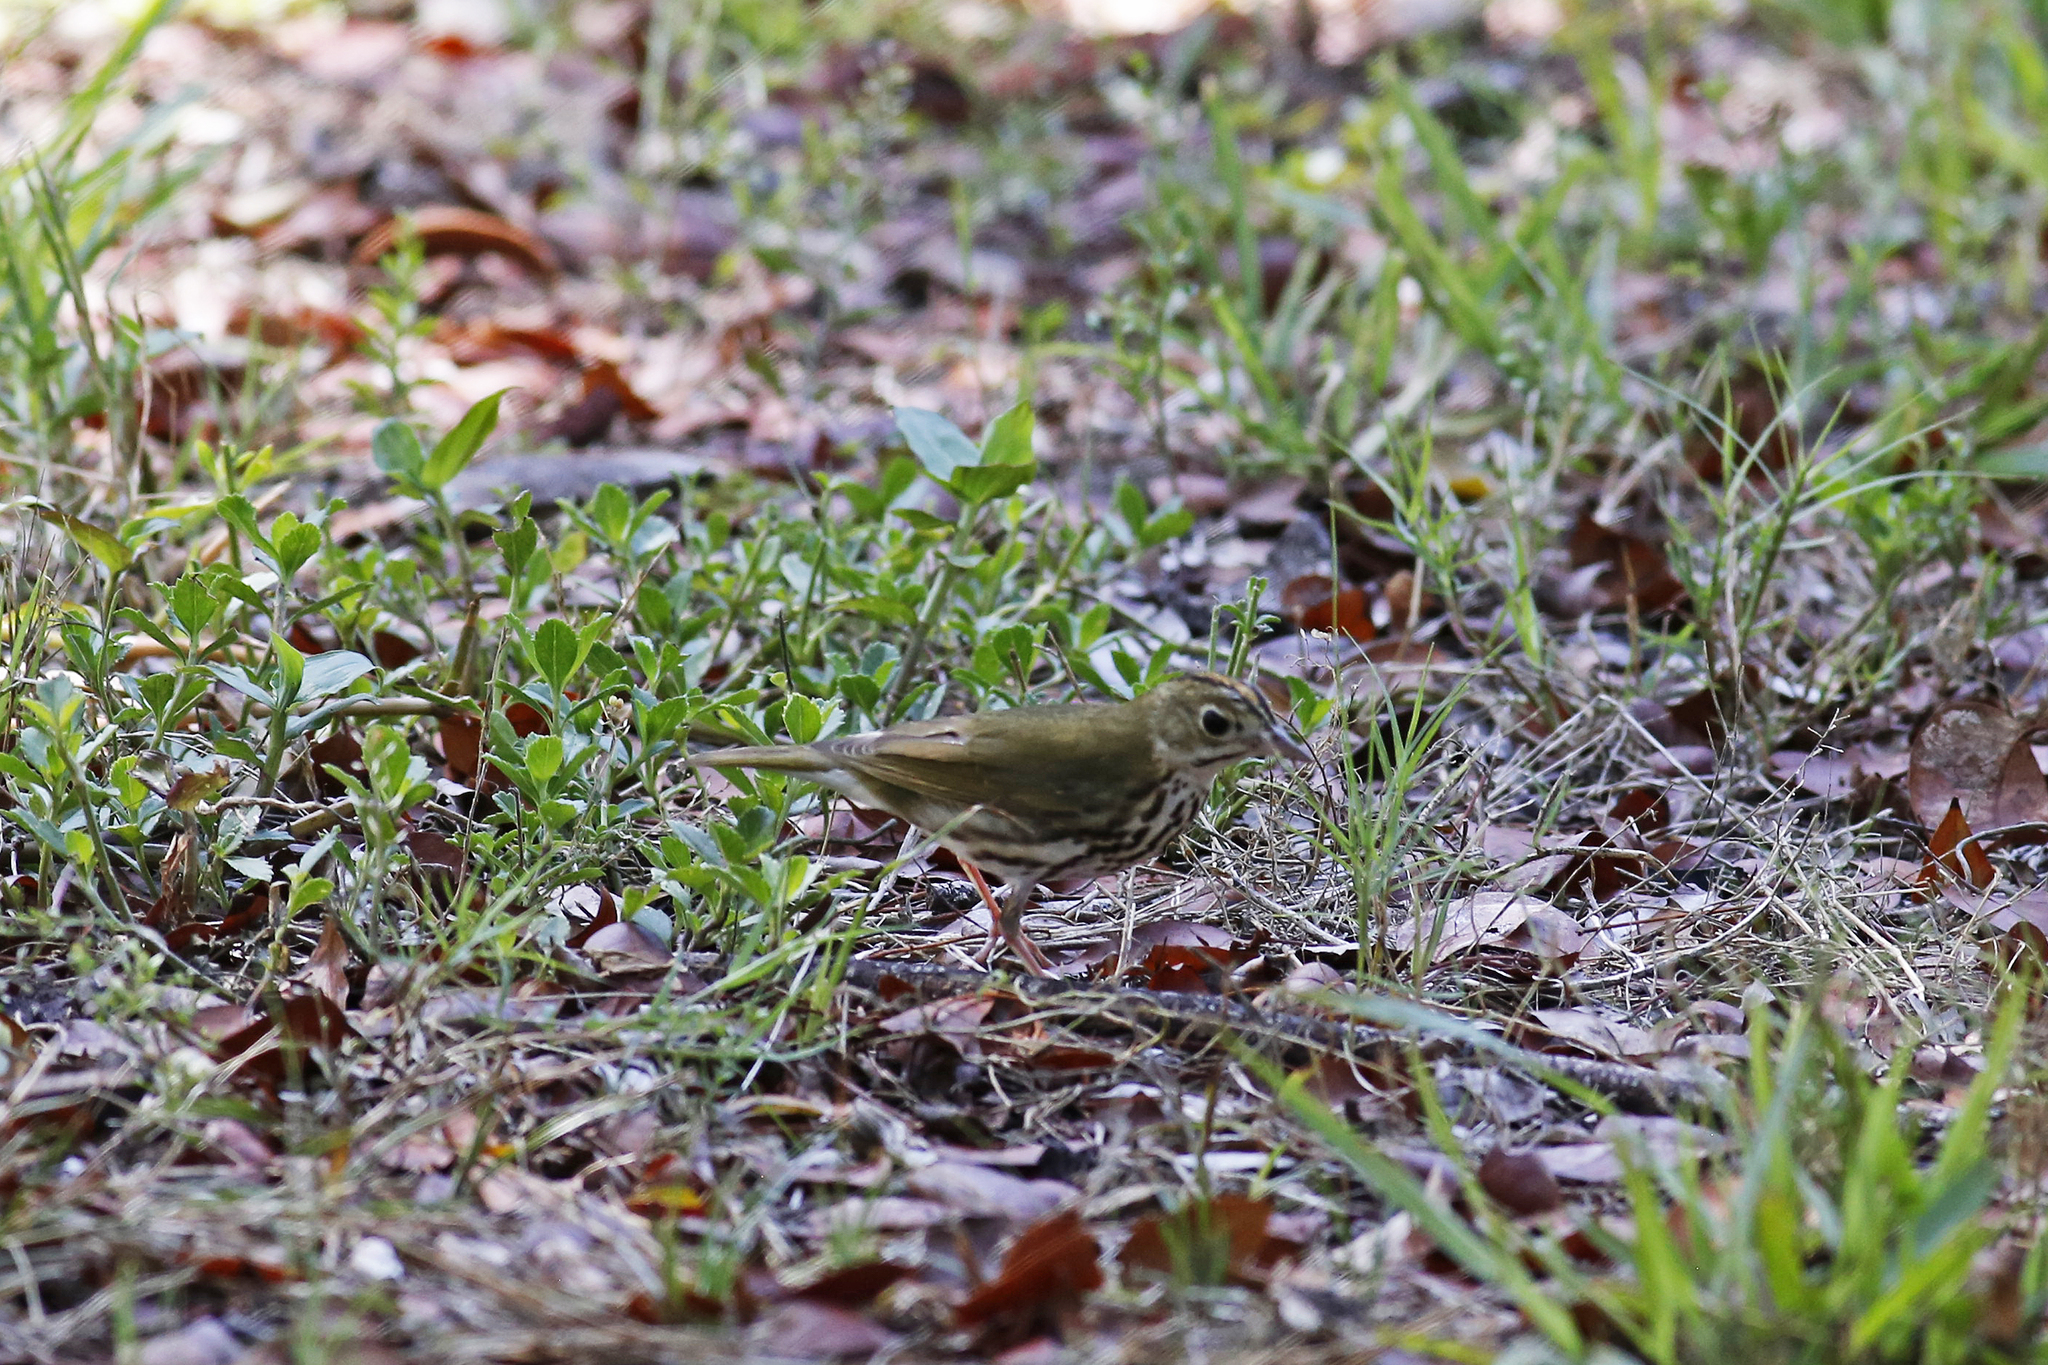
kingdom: Animalia
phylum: Chordata
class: Aves
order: Passeriformes
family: Parulidae
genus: Seiurus
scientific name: Seiurus aurocapilla
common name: Ovenbird
